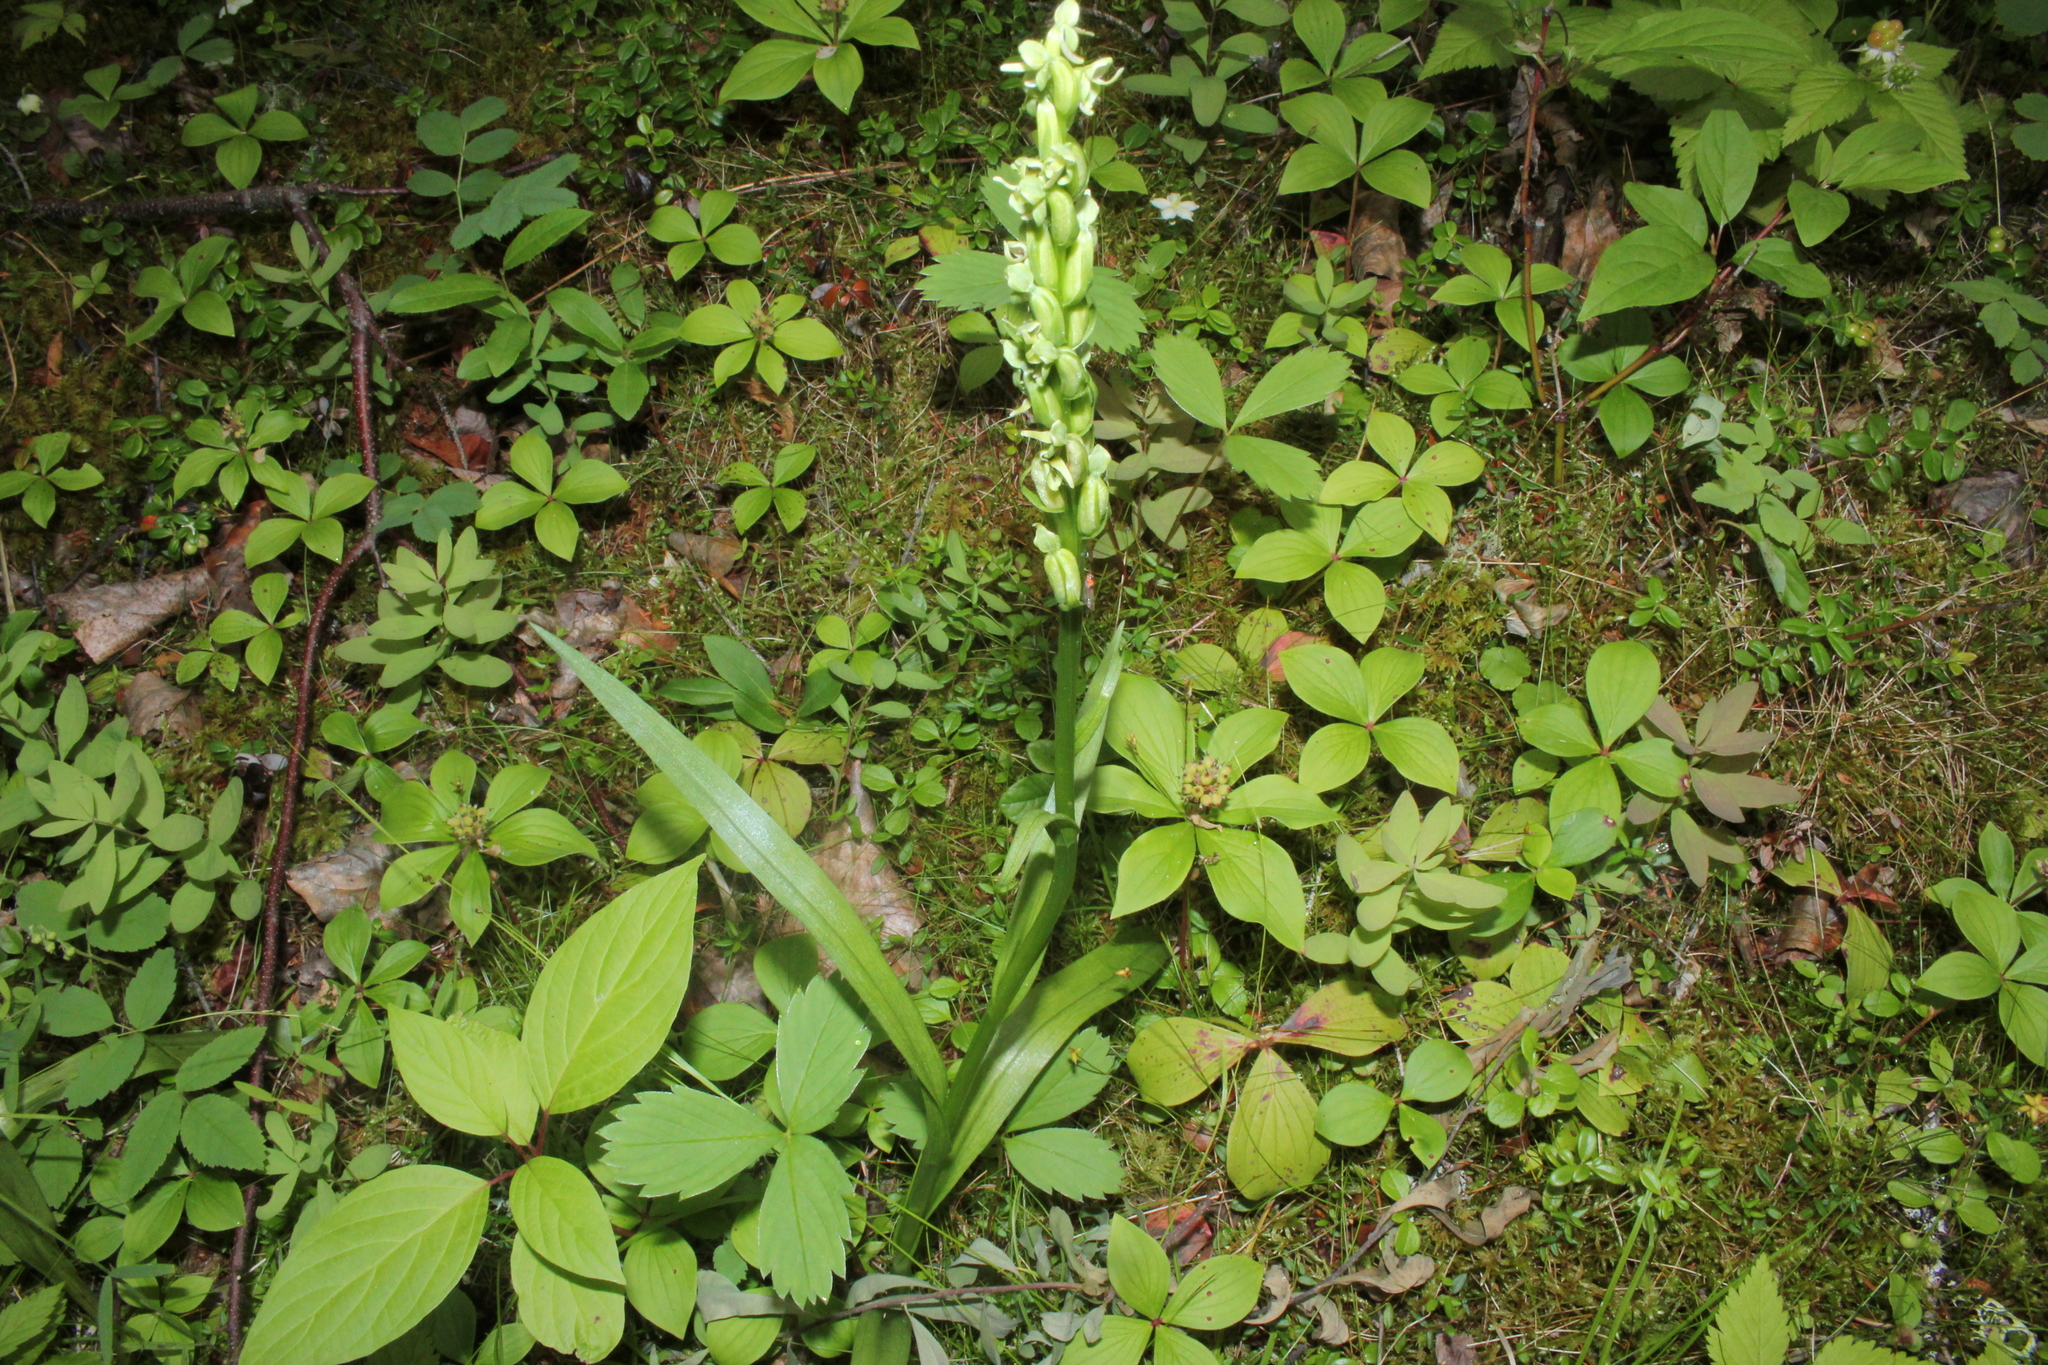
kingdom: Plantae
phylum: Tracheophyta
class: Liliopsida
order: Asparagales
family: Orchidaceae
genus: Platanthera
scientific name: Platanthera huronensis
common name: Fragrant green orchid
